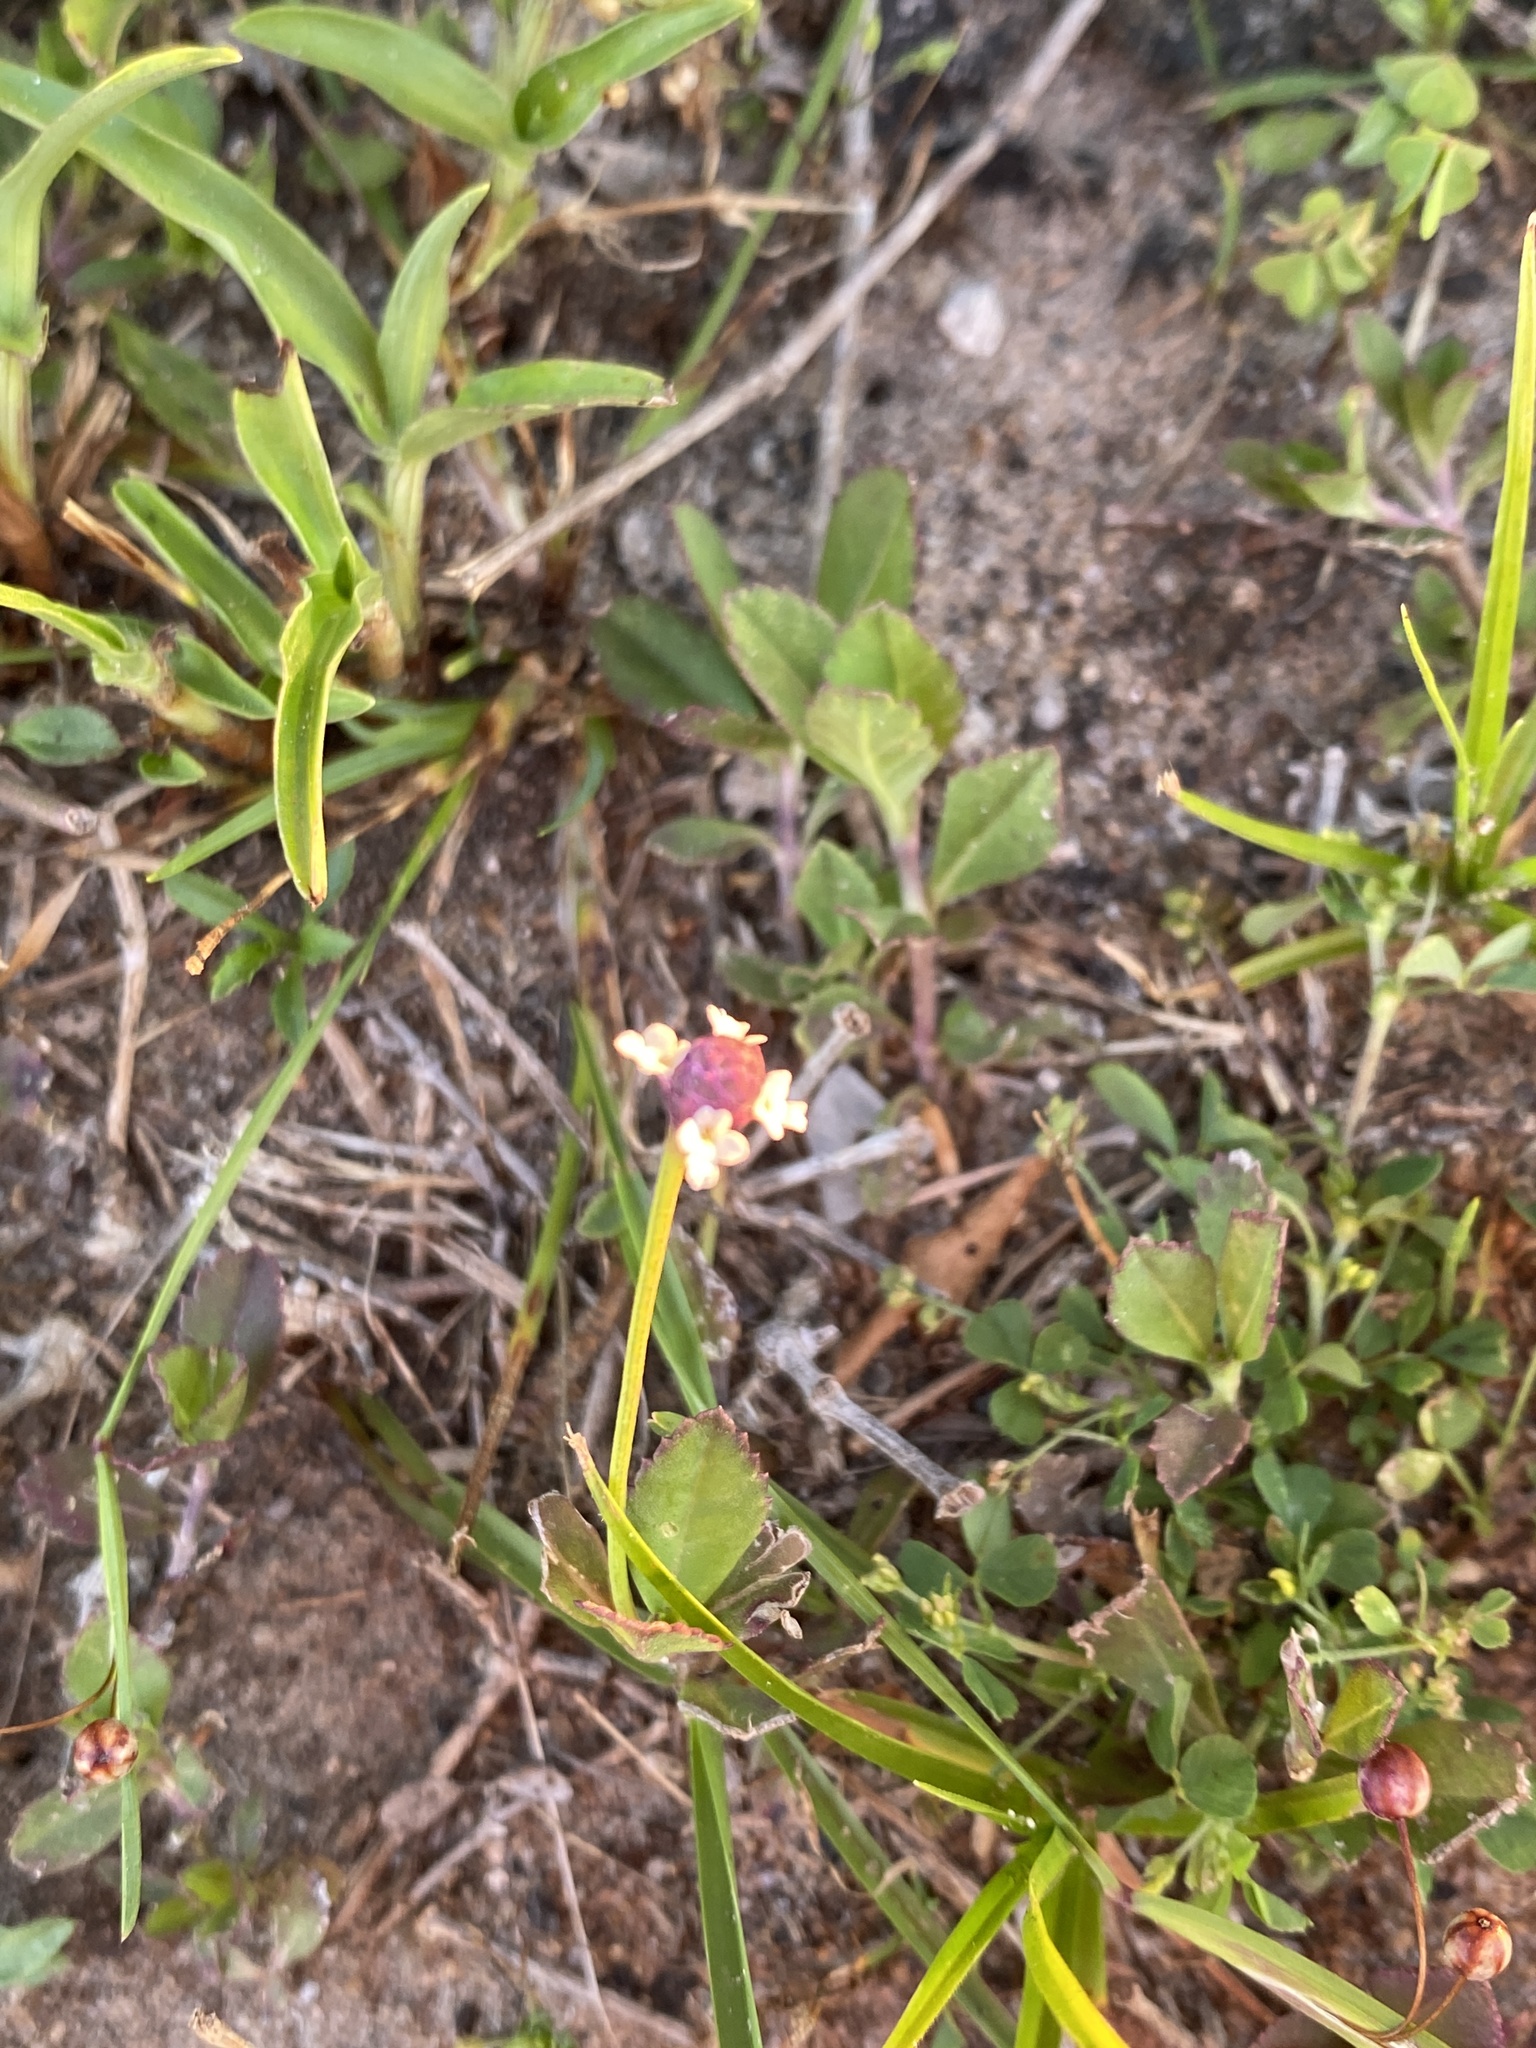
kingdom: Plantae
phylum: Tracheophyta
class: Magnoliopsida
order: Lamiales
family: Verbenaceae
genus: Phyla
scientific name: Phyla nodiflora
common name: Frogfruit
